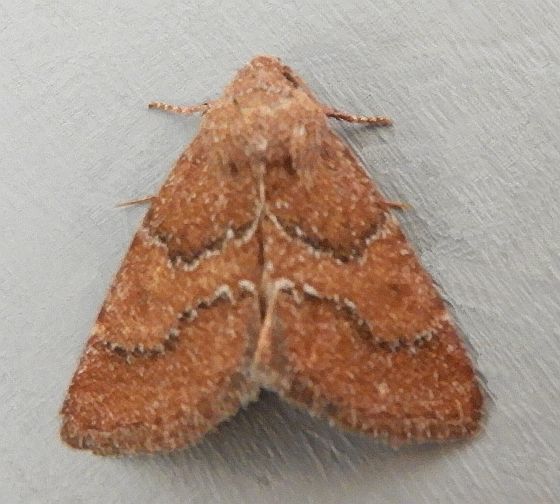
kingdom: Animalia
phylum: Arthropoda
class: Insecta
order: Lepidoptera
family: Noctuidae
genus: Schinia
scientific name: Schinia saturata
